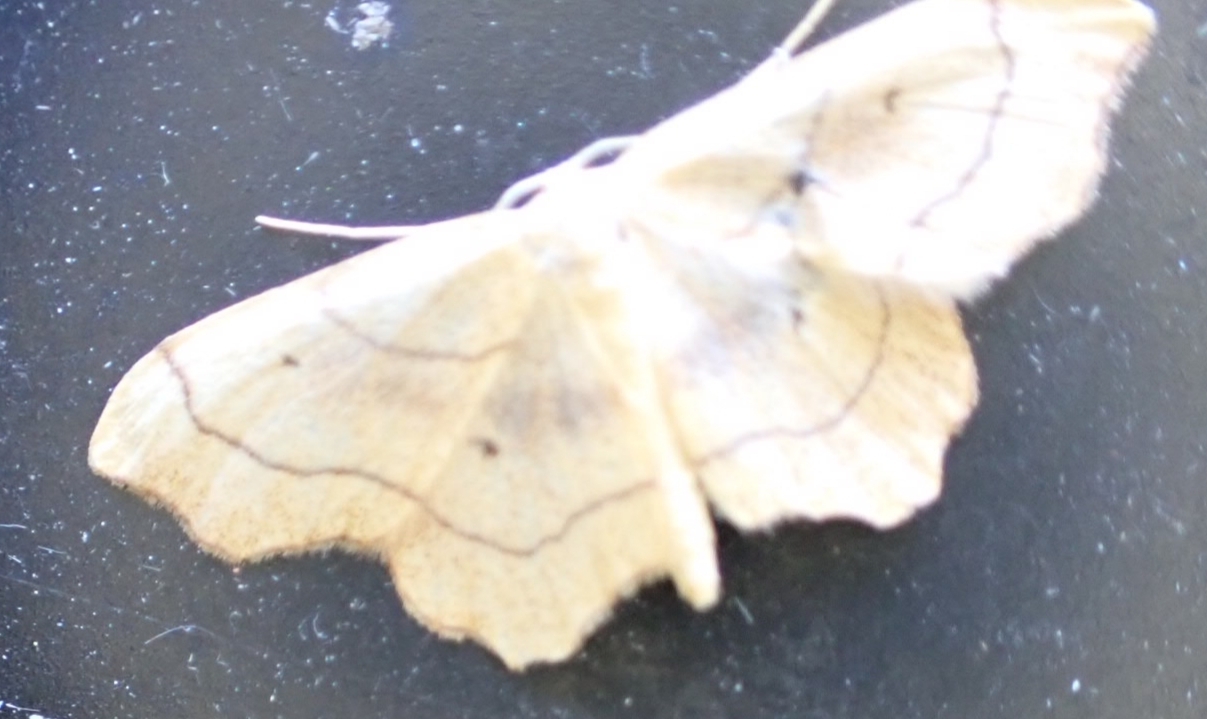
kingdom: Animalia
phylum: Arthropoda
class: Insecta
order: Lepidoptera
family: Geometridae
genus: Idaea
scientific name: Idaea emarginata
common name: Small scallop
